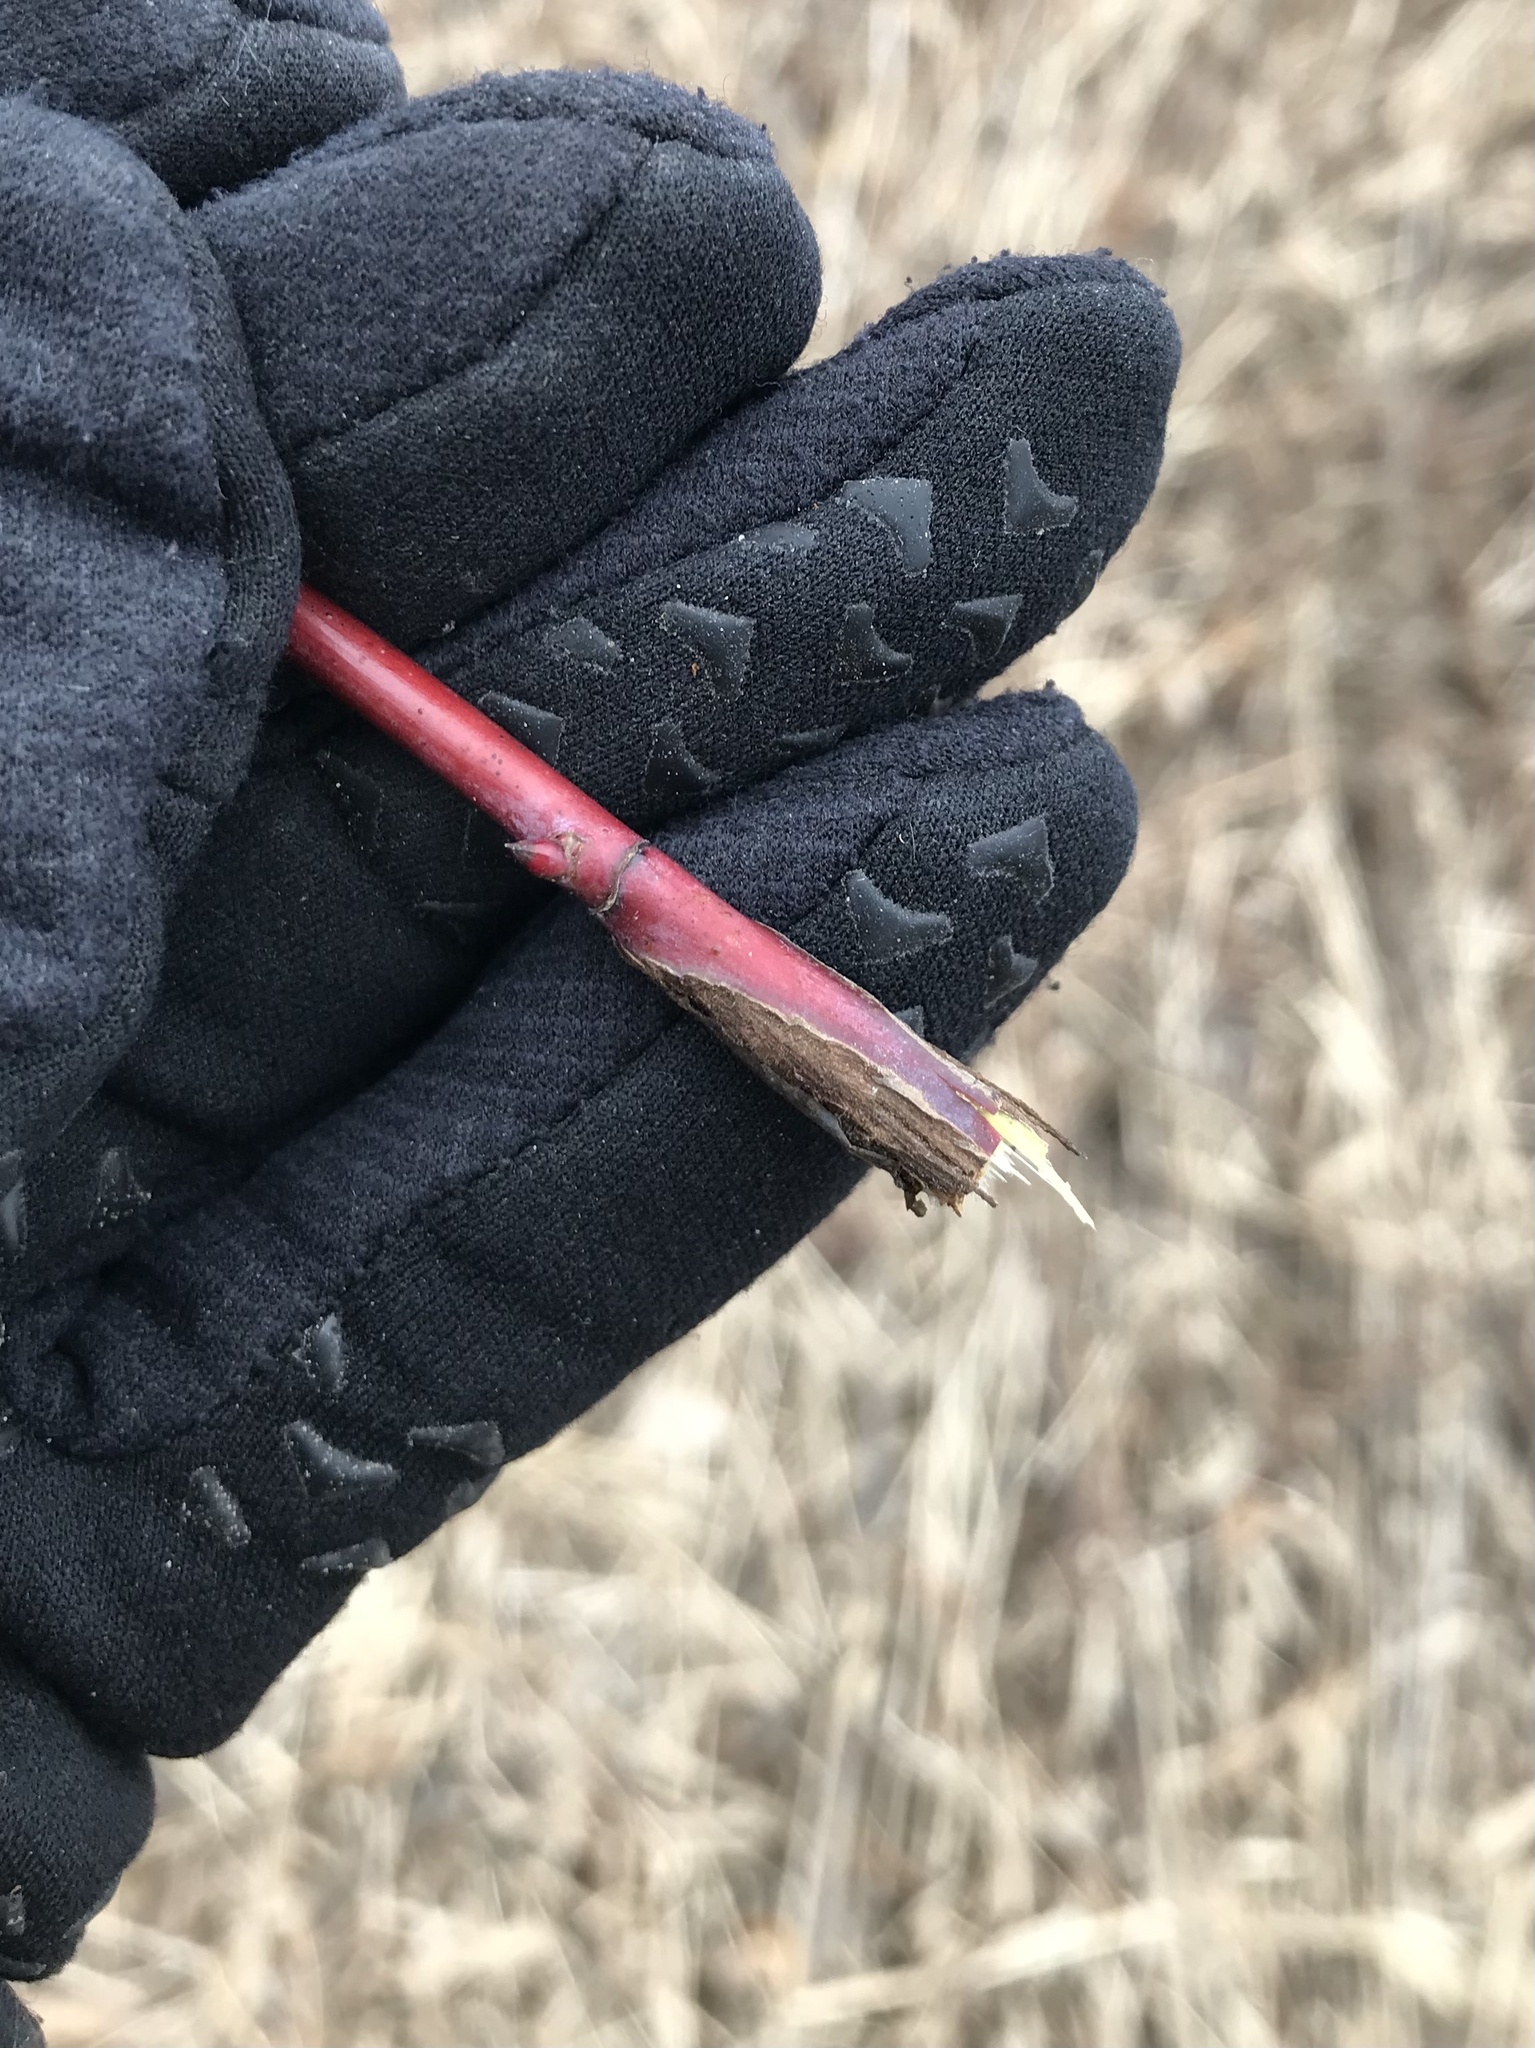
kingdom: Animalia
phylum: Arthropoda
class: Insecta
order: Hymenoptera
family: Cynipidae
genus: Diplolepis
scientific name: Diplolepis fusiformans
